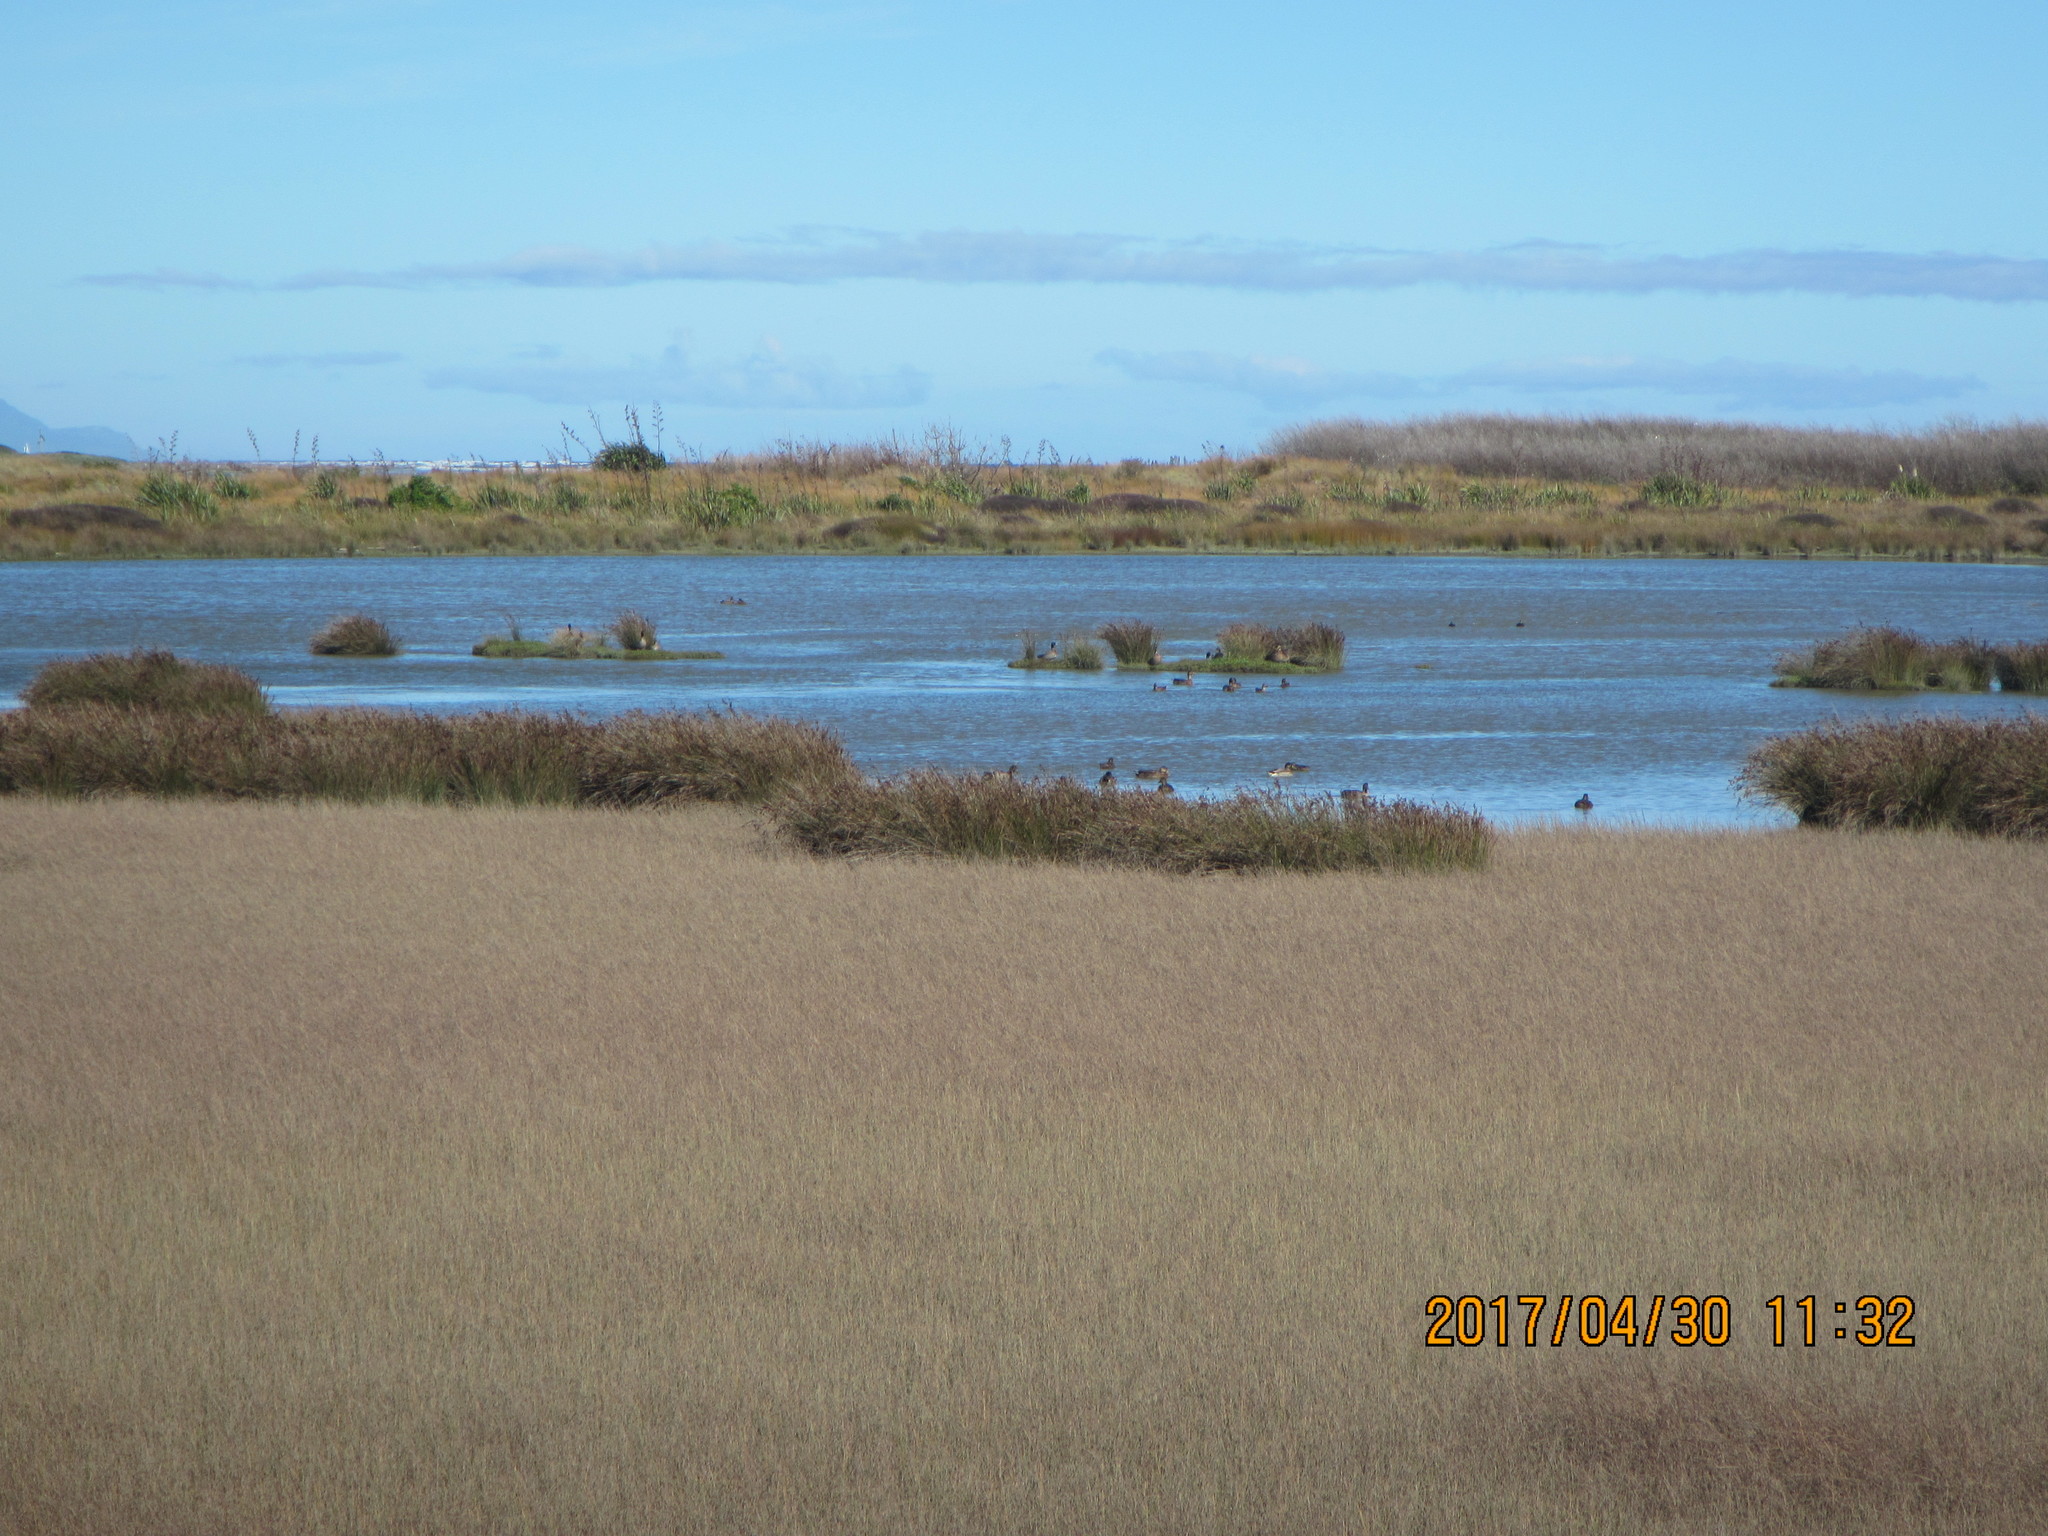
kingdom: Animalia
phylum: Chordata
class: Aves
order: Anseriformes
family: Anatidae
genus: Anas
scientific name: Anas platyrhynchos
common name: Mallard
